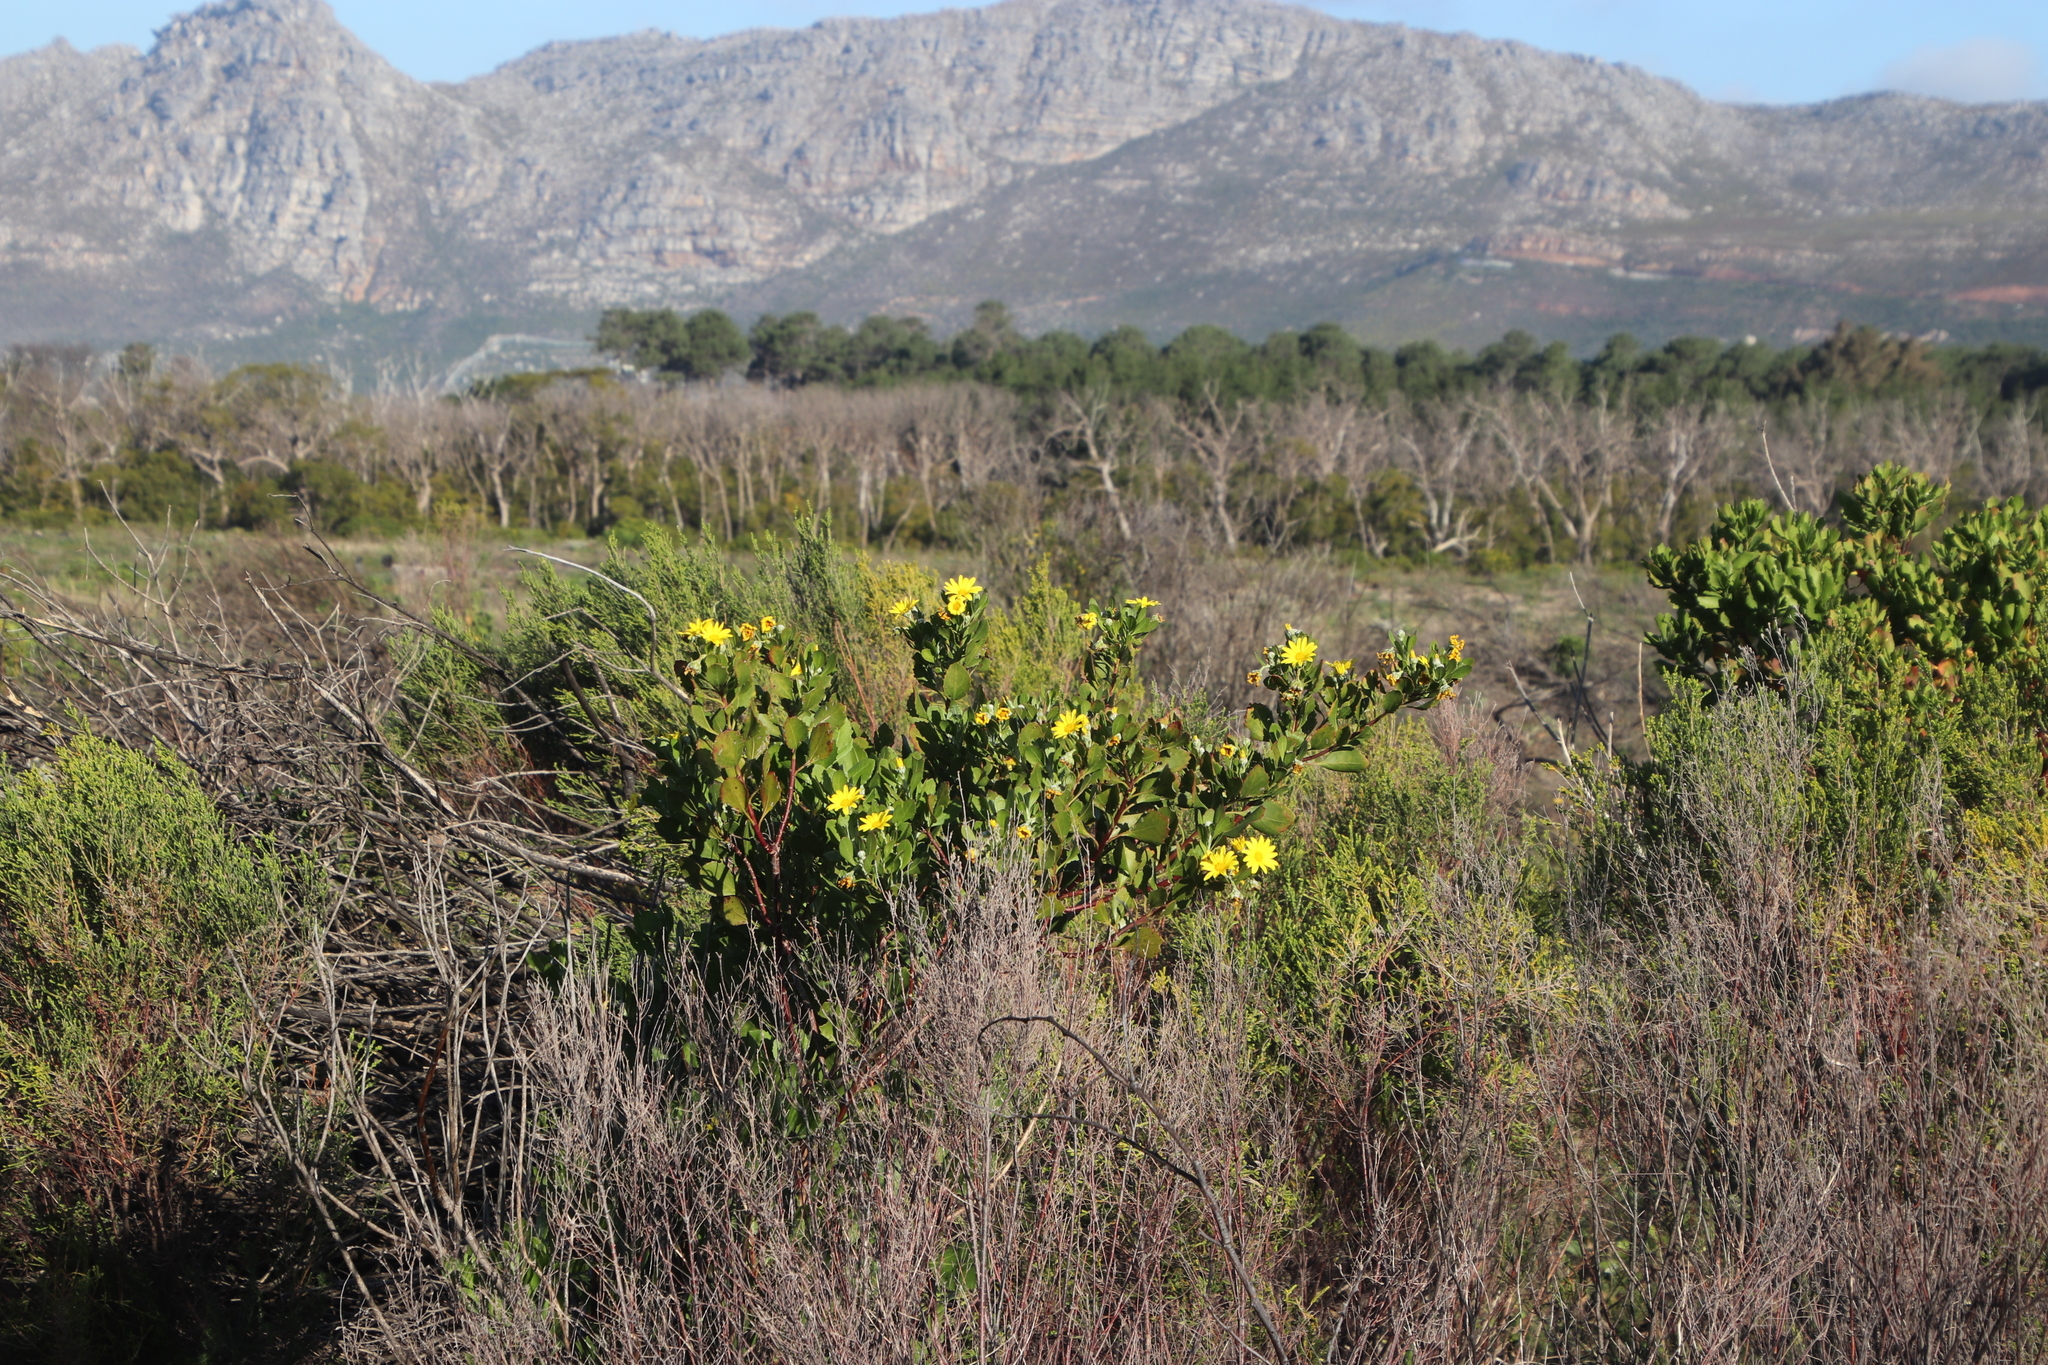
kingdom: Plantae
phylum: Tracheophyta
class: Magnoliopsida
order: Asterales
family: Asteraceae
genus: Osteospermum
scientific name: Osteospermum moniliferum
